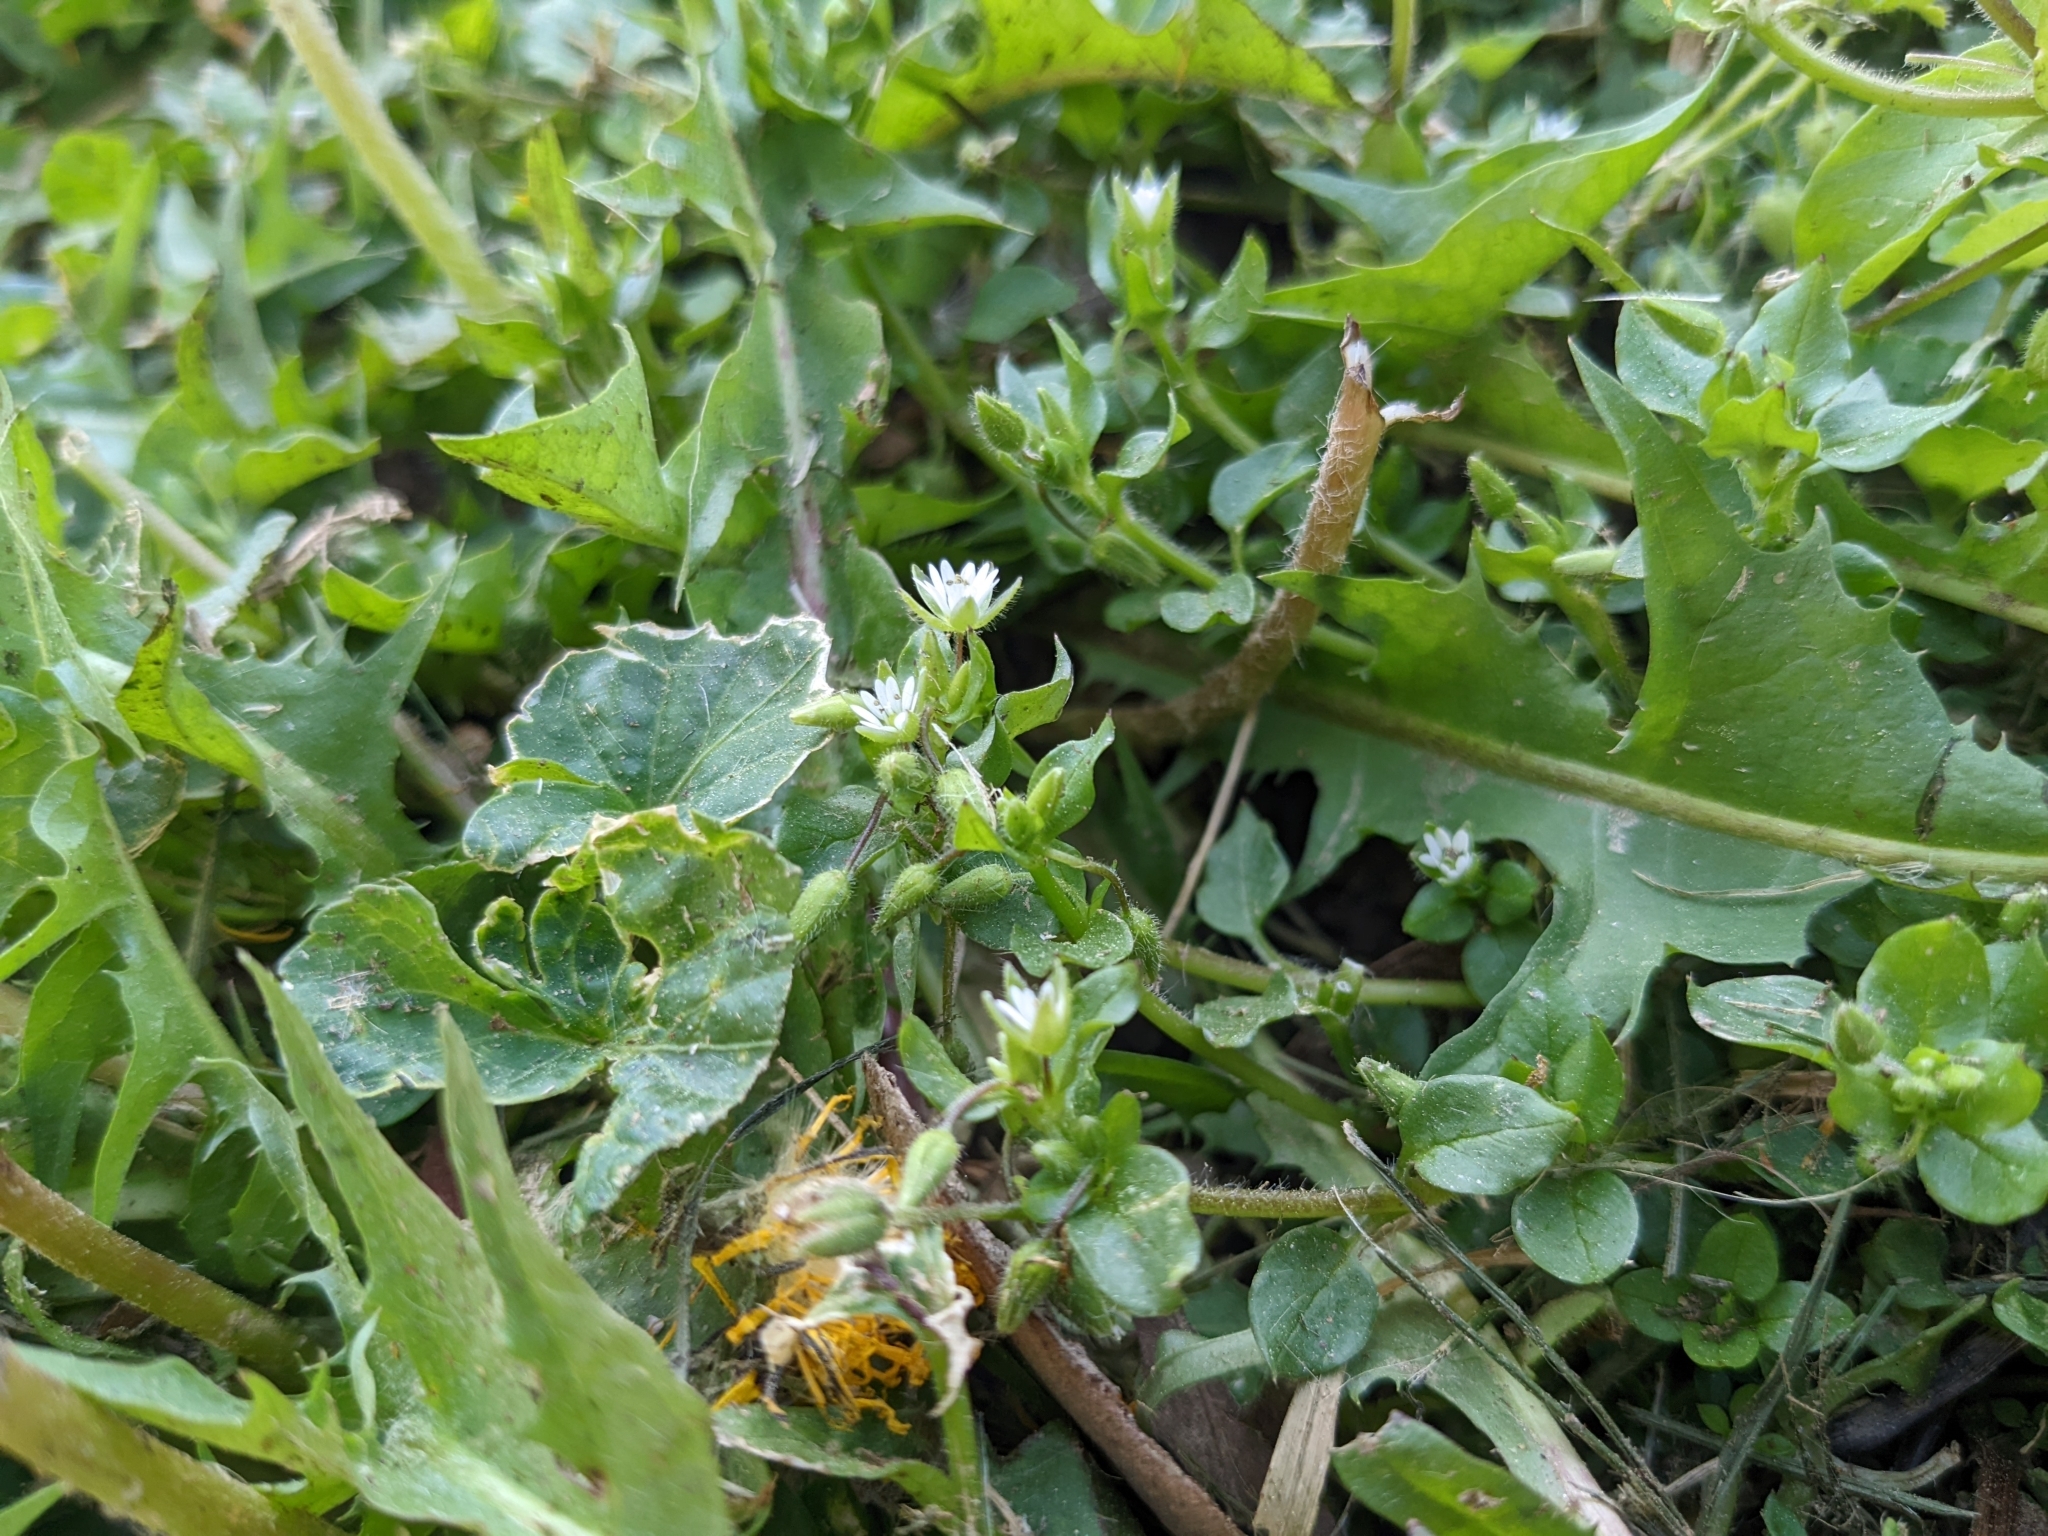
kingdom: Plantae
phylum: Tracheophyta
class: Magnoliopsida
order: Caryophyllales
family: Caryophyllaceae
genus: Stellaria
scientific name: Stellaria media
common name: Common chickweed
